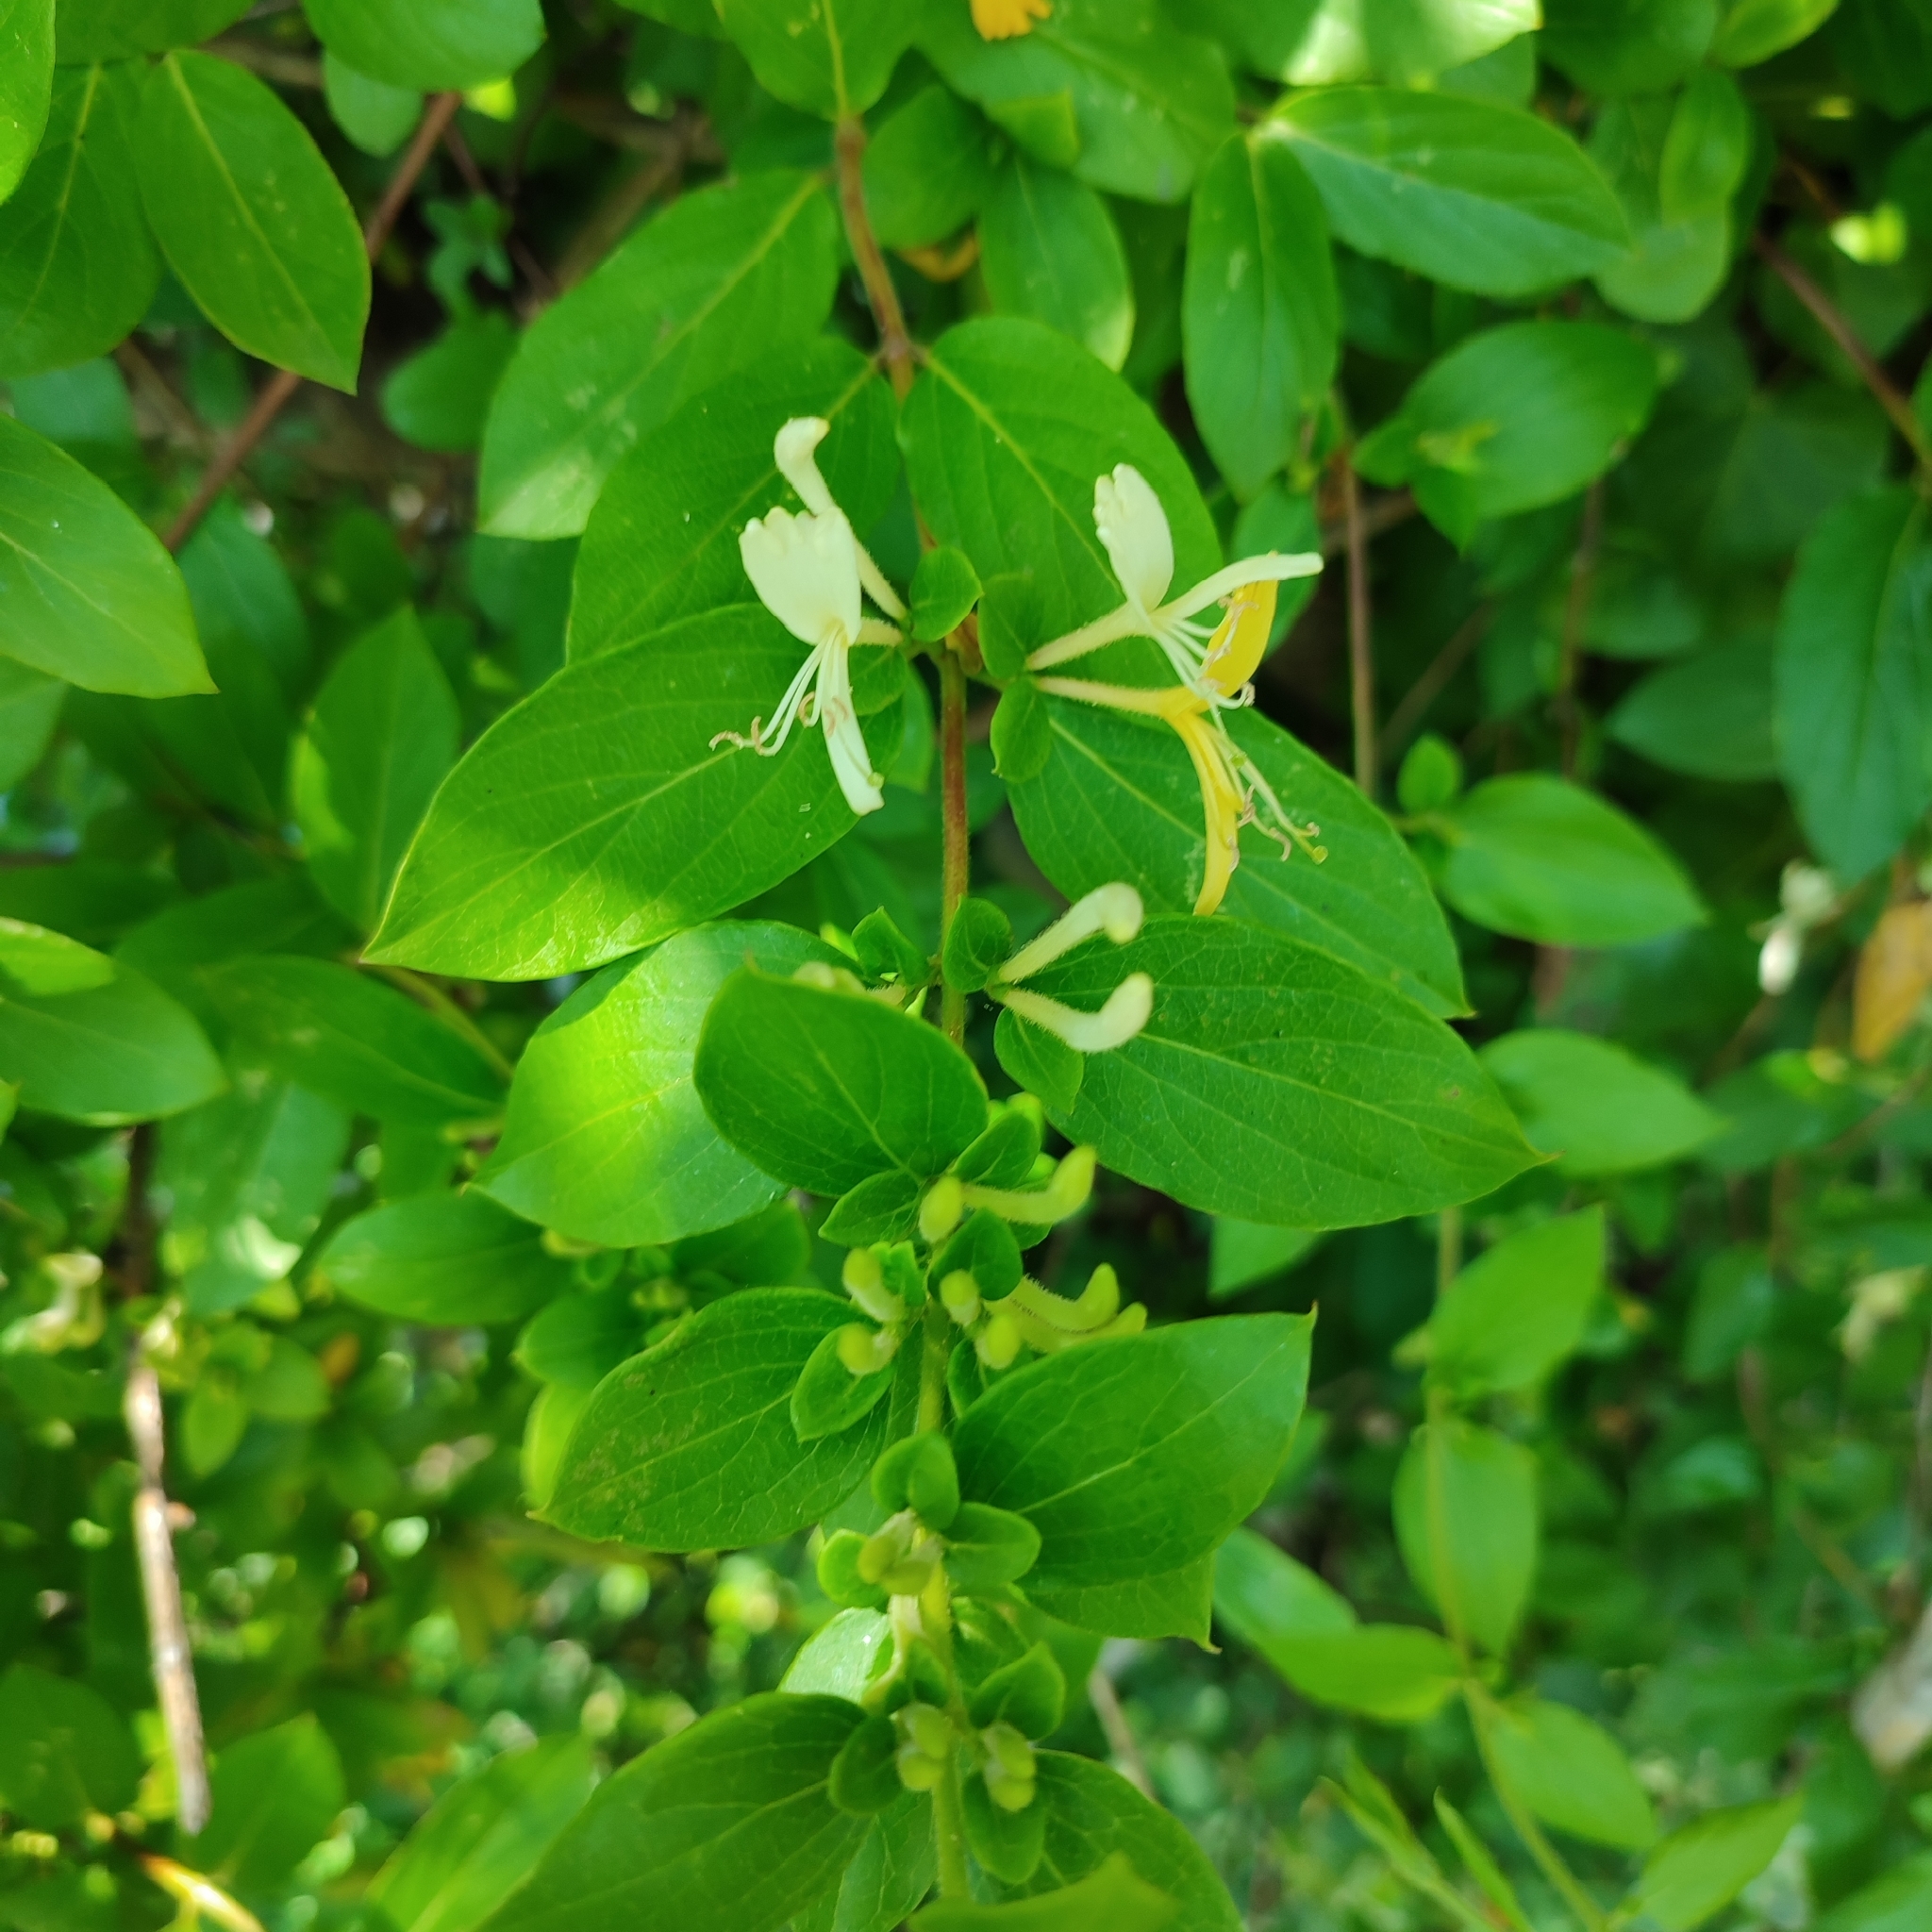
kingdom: Plantae
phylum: Tracheophyta
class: Magnoliopsida
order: Dipsacales
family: Caprifoliaceae
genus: Lonicera
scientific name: Lonicera japonica
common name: Japanese honeysuckle
